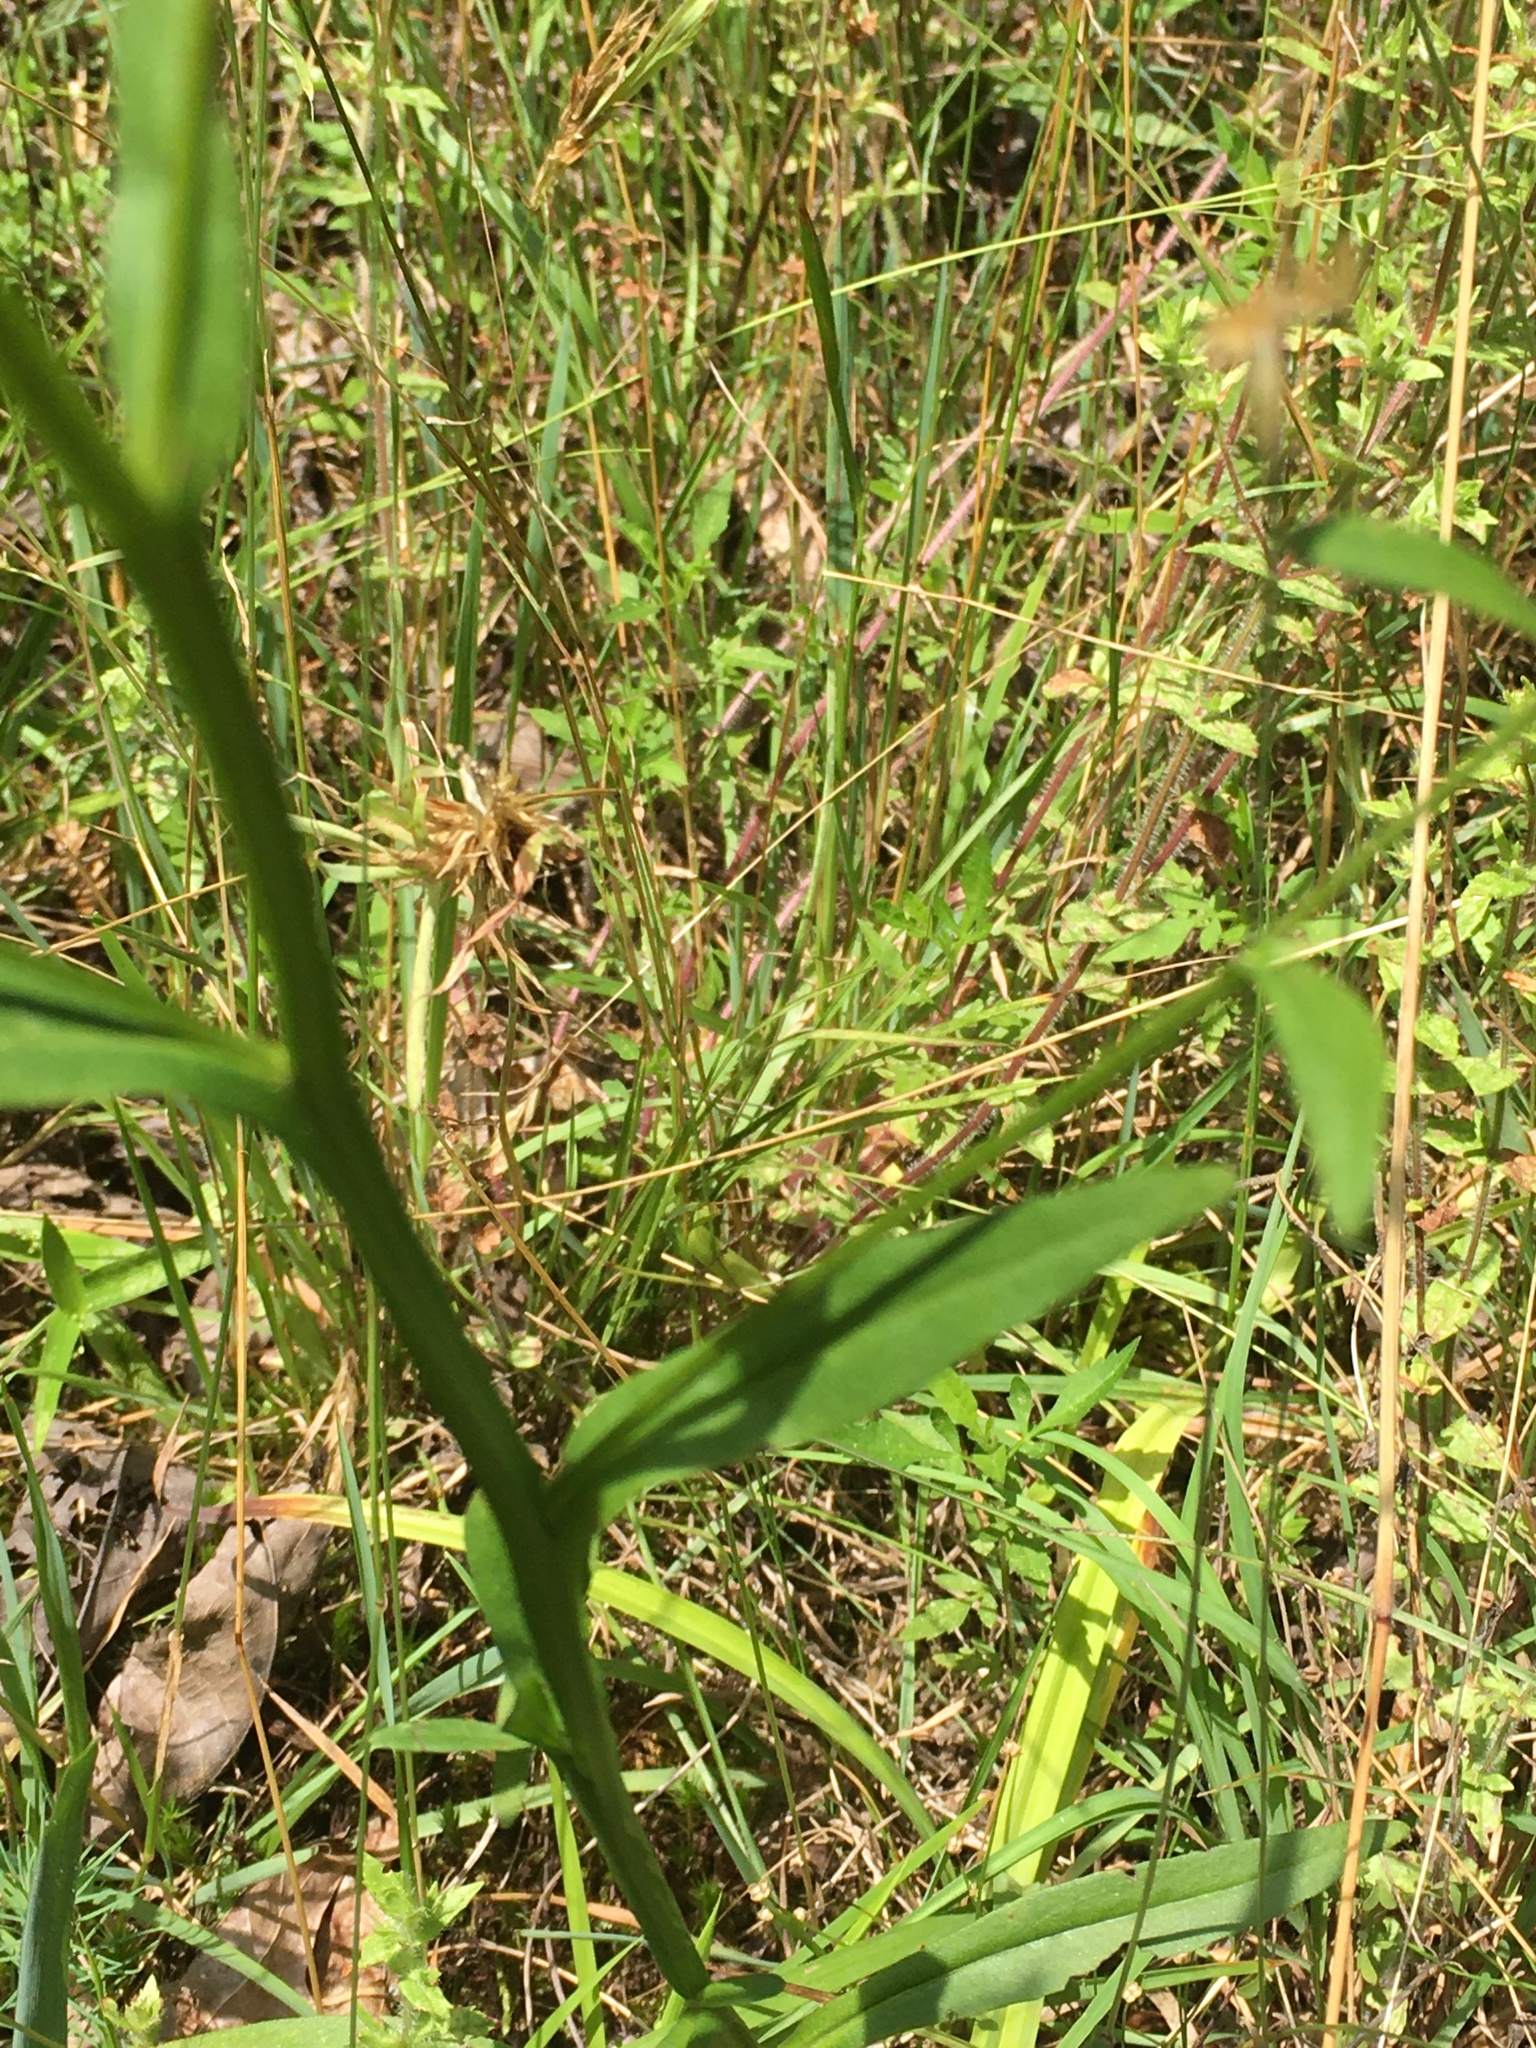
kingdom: Plantae
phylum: Tracheophyta
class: Magnoliopsida
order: Asterales
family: Asteraceae
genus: Helenium
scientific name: Helenium flexuosum
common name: Naked-flowered sneezeweed
